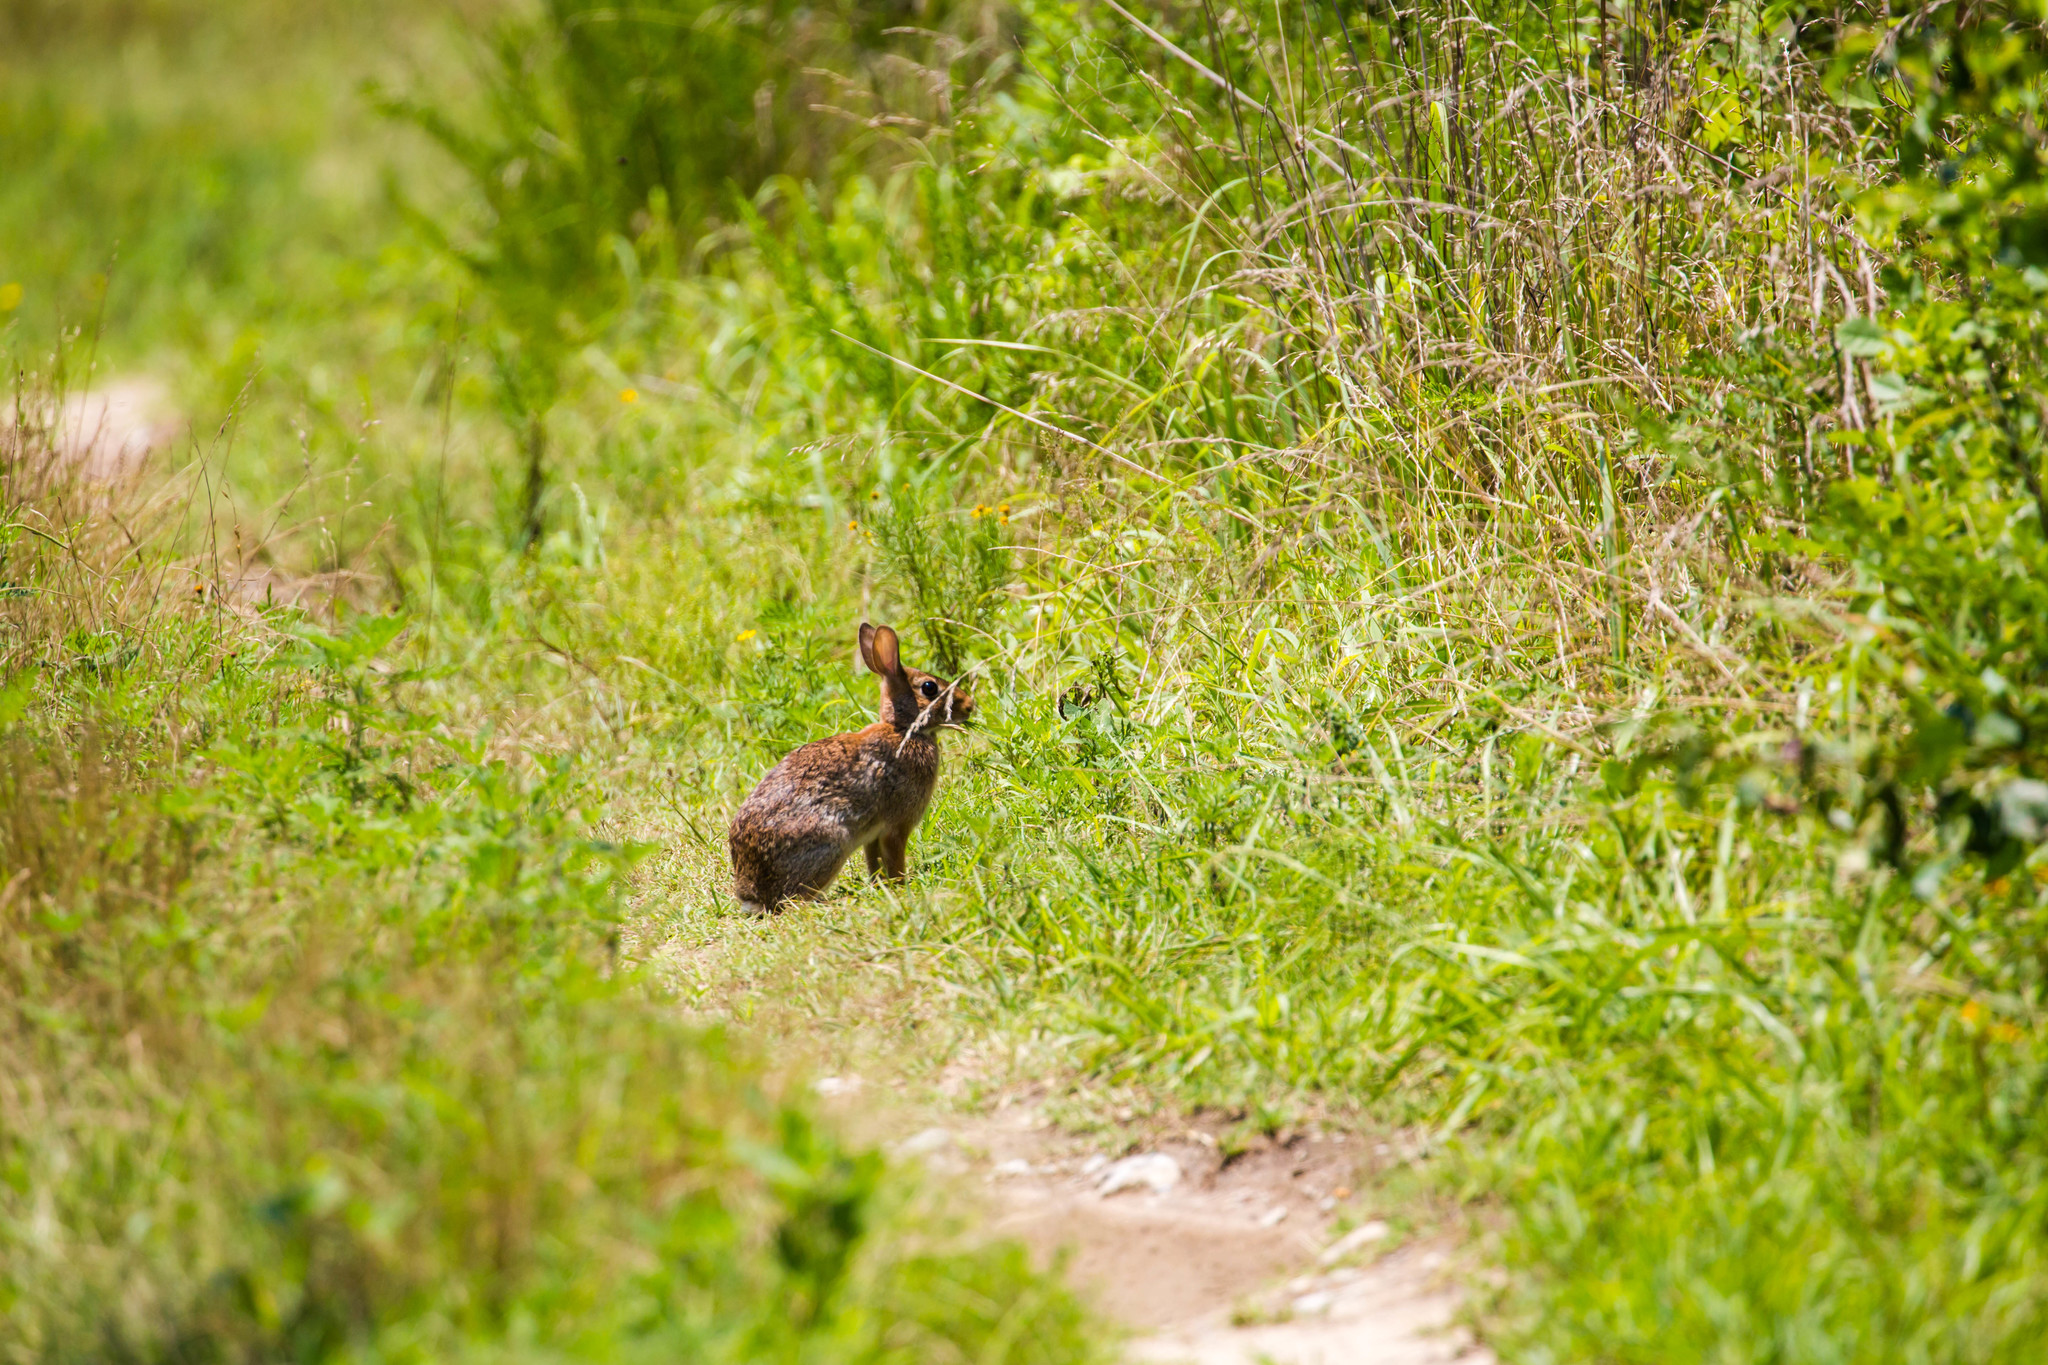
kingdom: Animalia
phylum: Chordata
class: Mammalia
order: Lagomorpha
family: Leporidae
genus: Sylvilagus
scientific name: Sylvilagus floridanus
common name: Eastern cottontail
